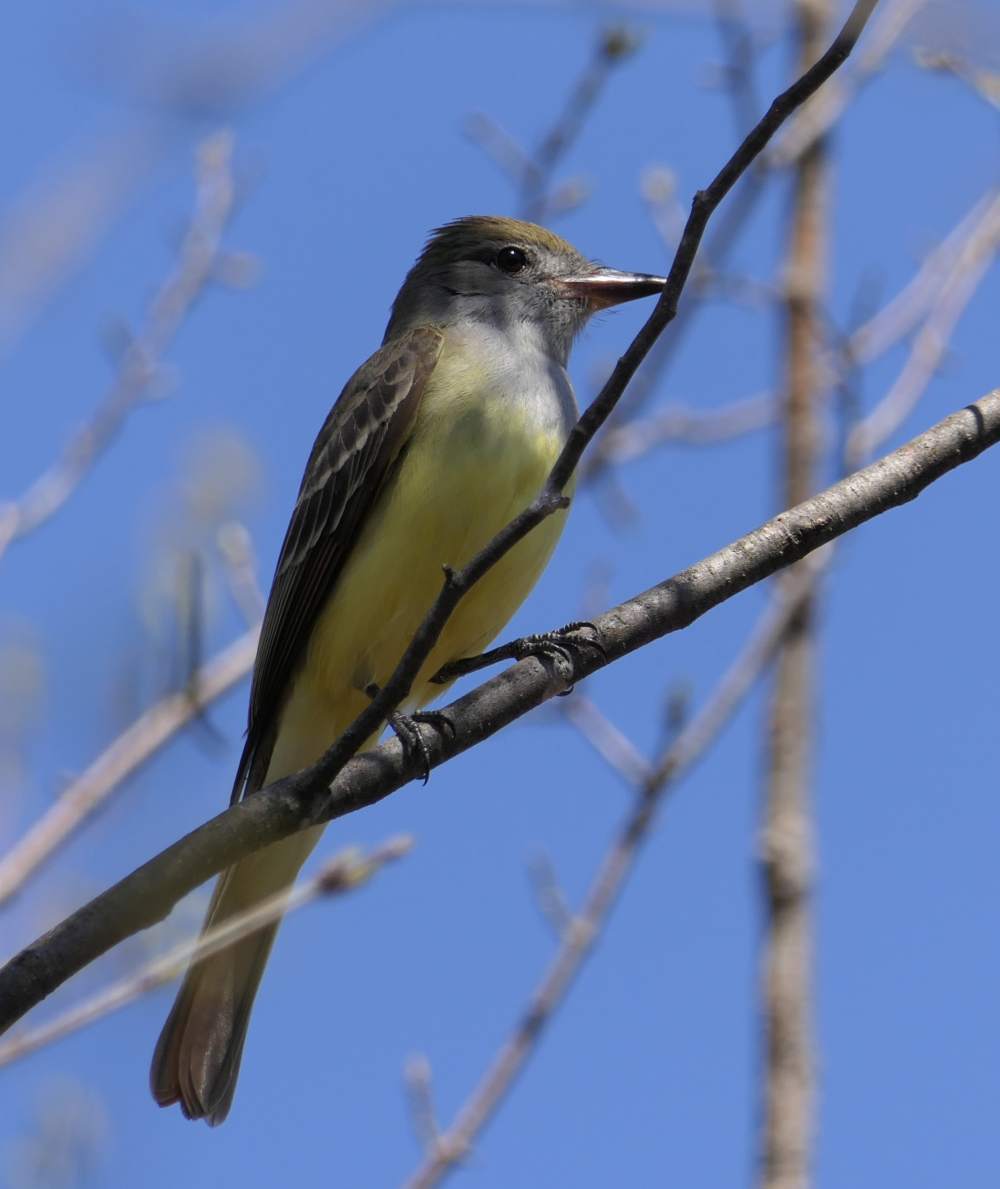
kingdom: Animalia
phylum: Chordata
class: Aves
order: Passeriformes
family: Tyrannidae
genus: Myiarchus
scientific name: Myiarchus crinitus
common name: Great crested flycatcher
